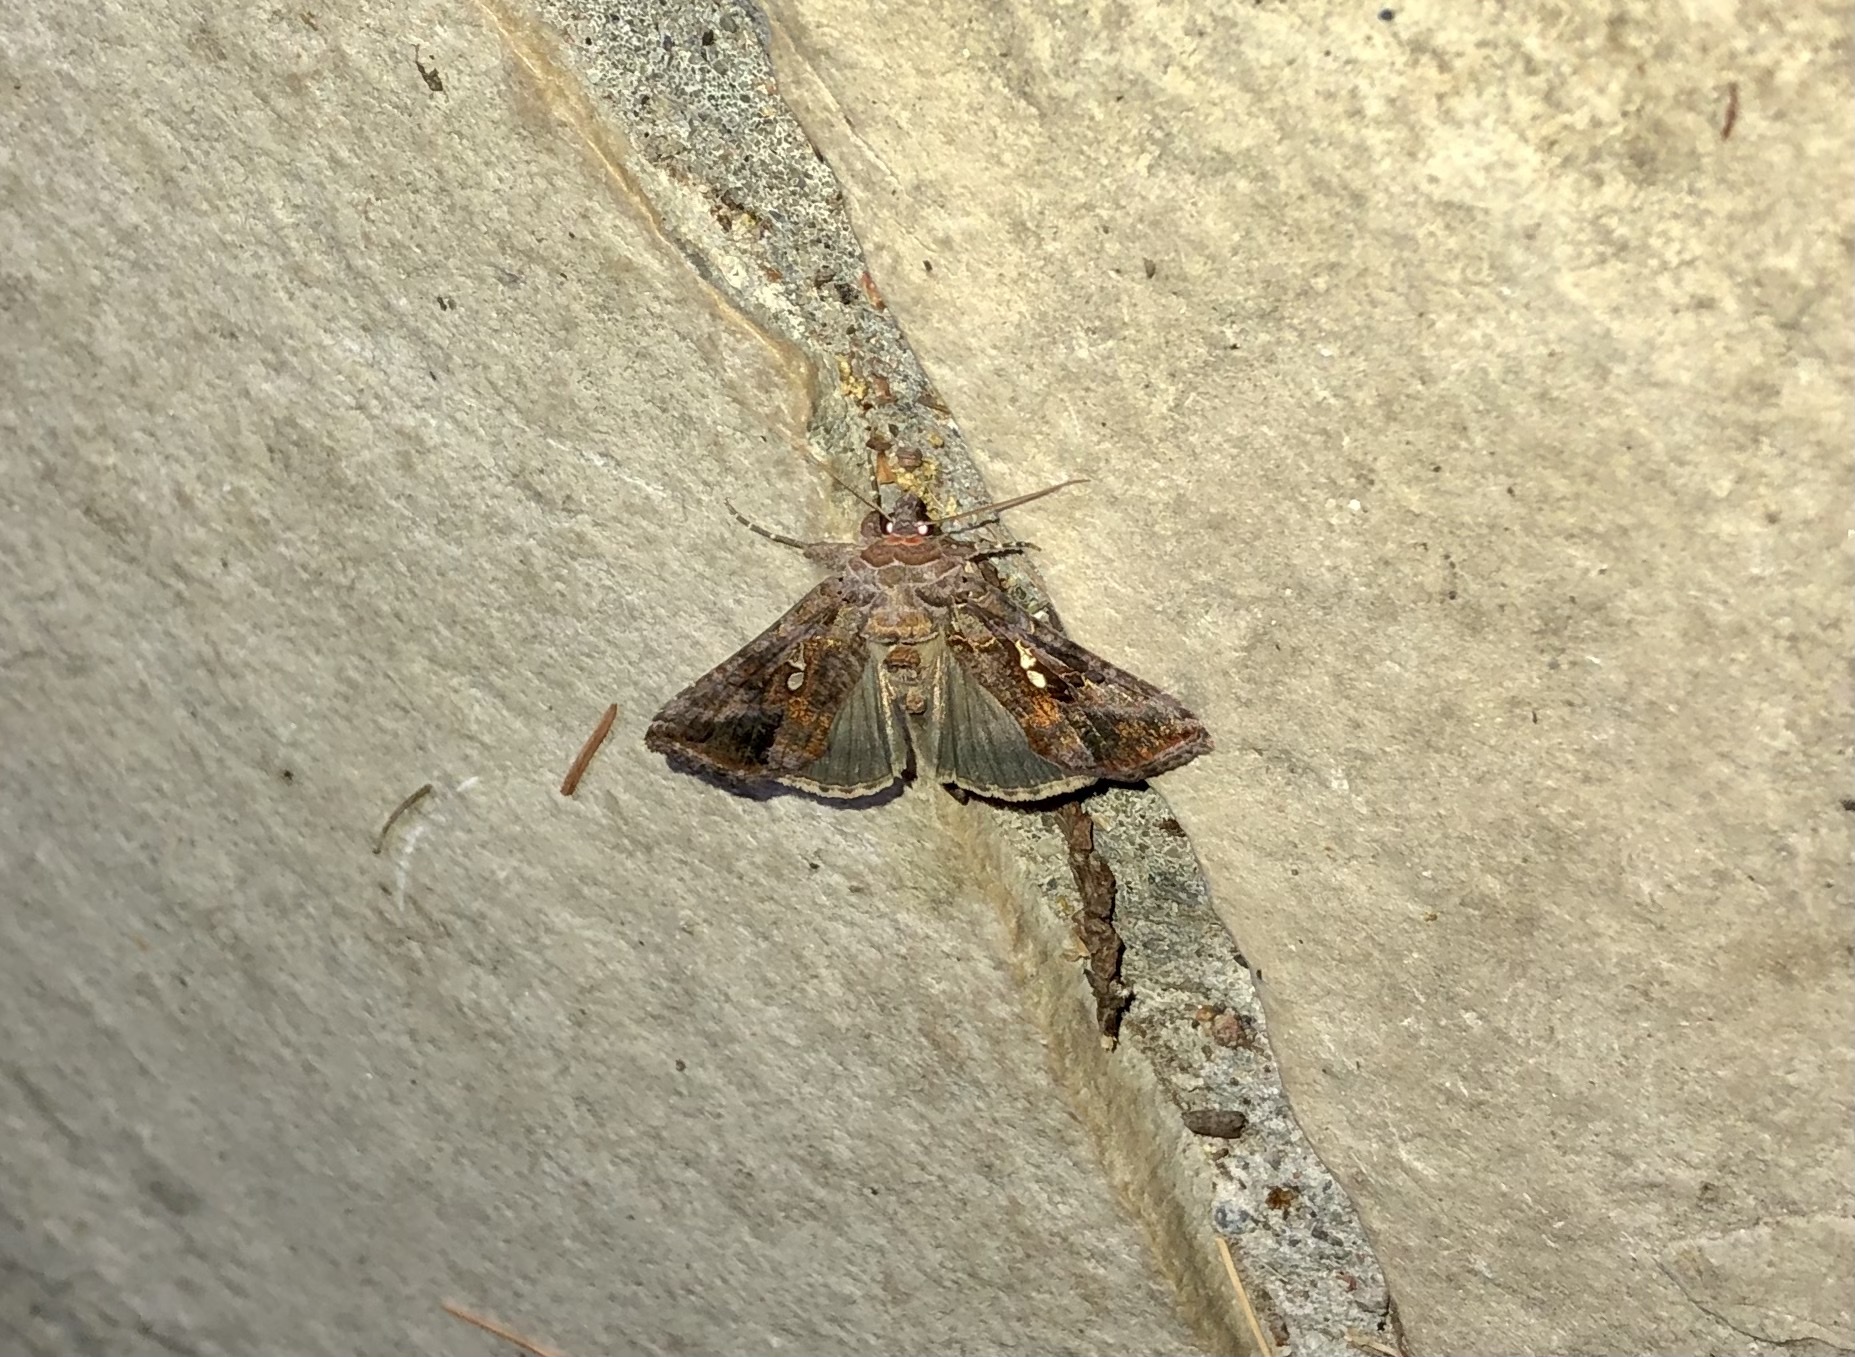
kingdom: Animalia
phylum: Arthropoda
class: Insecta
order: Lepidoptera
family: Noctuidae
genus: Autographa
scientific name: Autographa precationis
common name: Common looper moth
